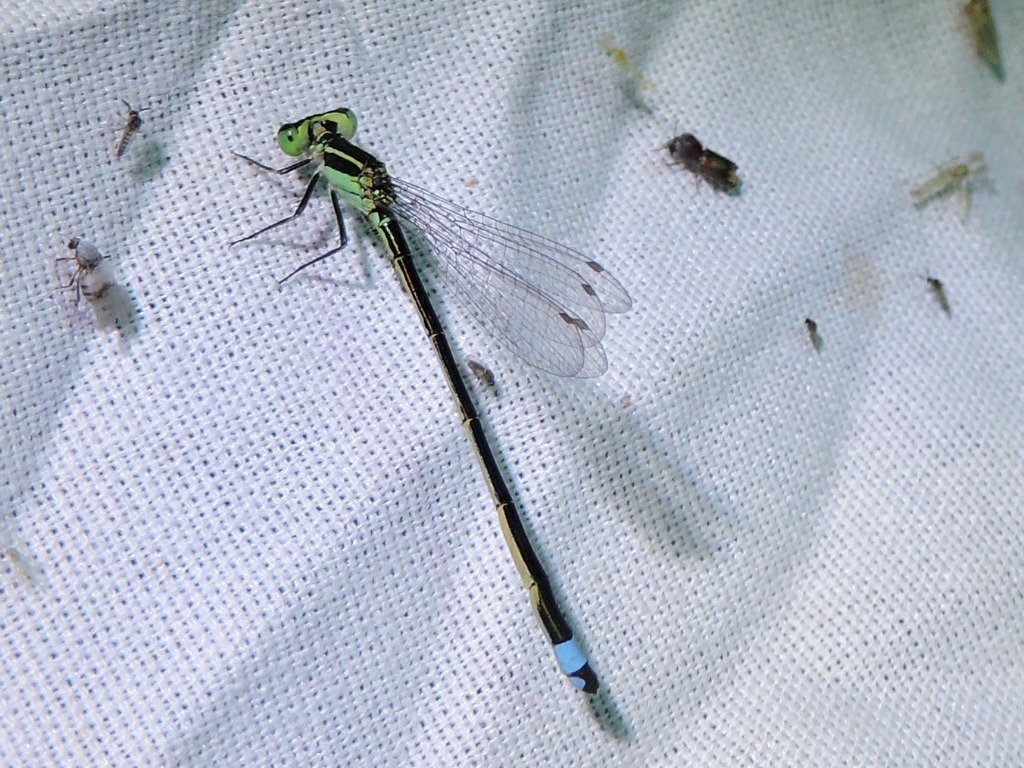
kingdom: Animalia
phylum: Arthropoda
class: Insecta
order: Odonata
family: Coenagrionidae
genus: Ischnura
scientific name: Ischnura ramburii
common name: Rambur's forktail
